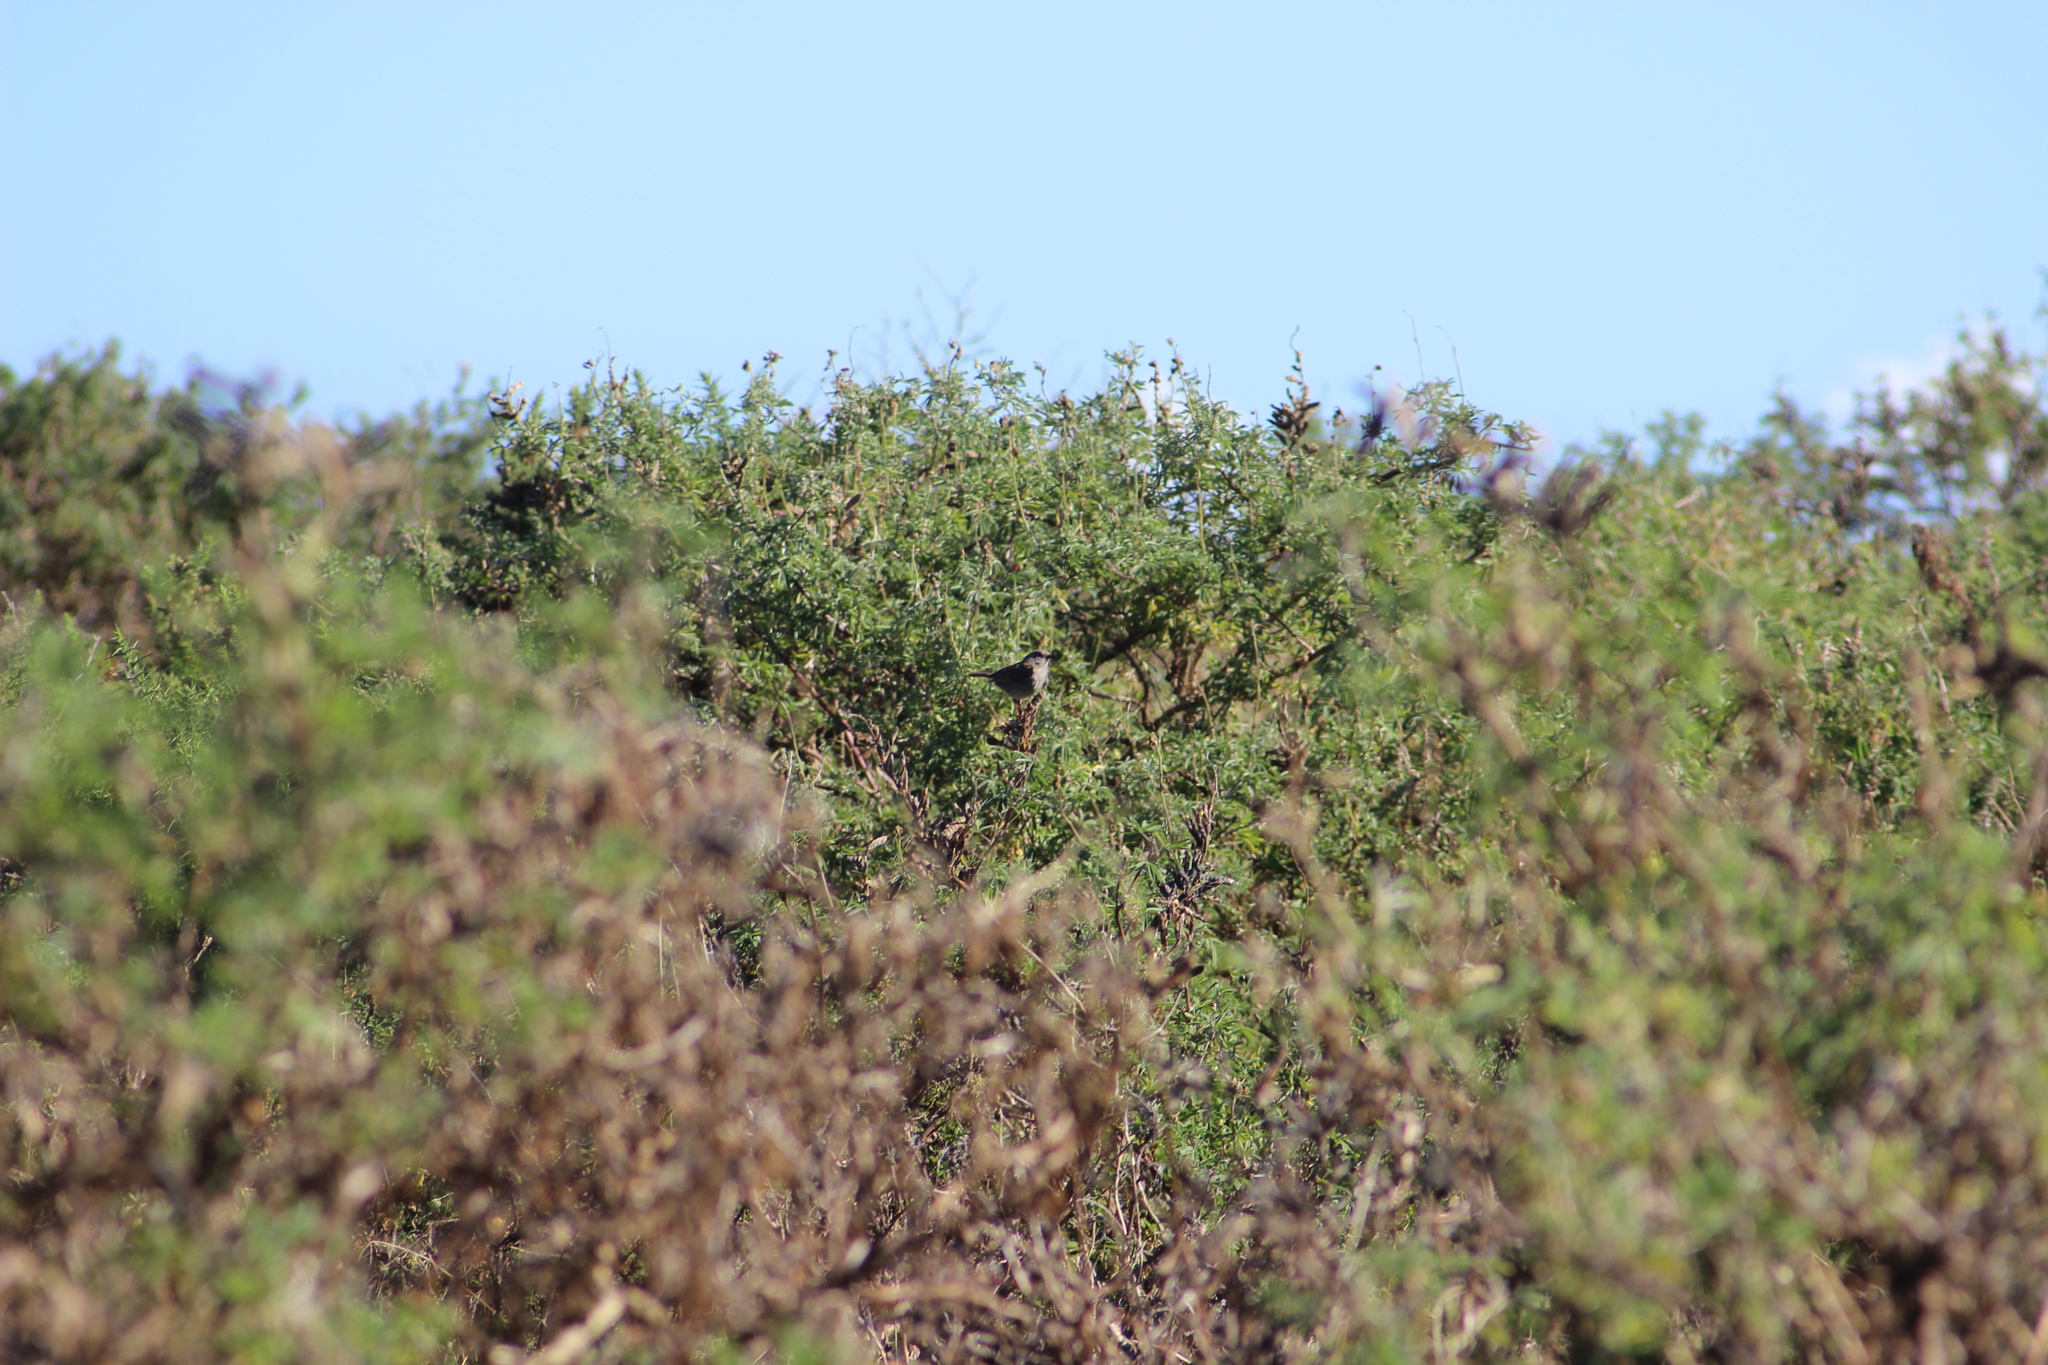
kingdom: Animalia
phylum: Chordata
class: Aves
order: Passeriformes
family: Prunellidae
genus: Prunella
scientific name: Prunella modularis
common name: Dunnock
